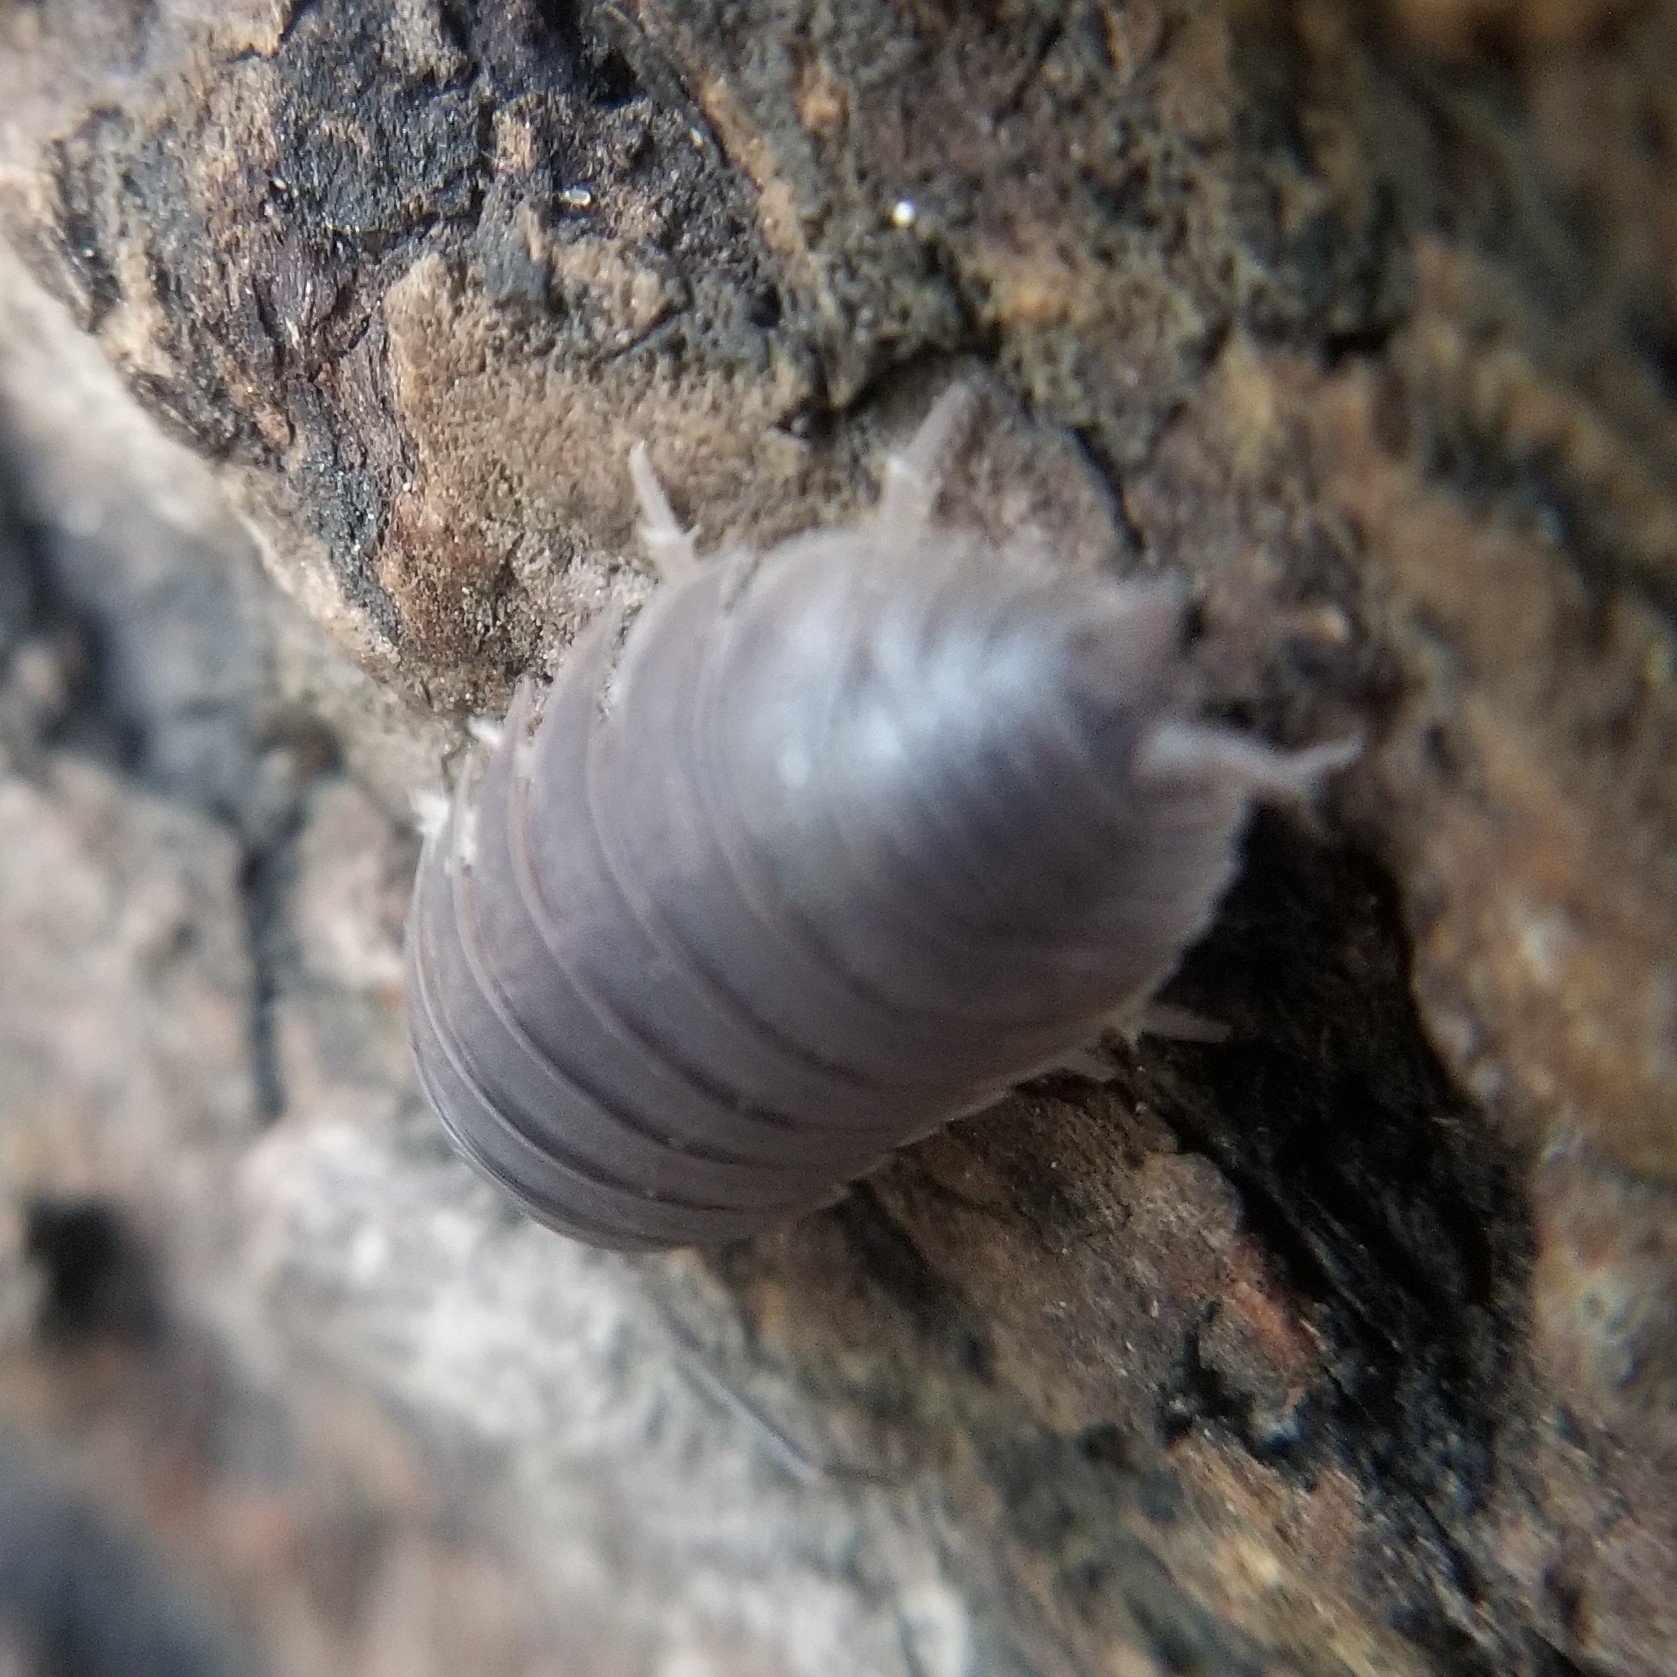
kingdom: Animalia
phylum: Arthropoda
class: Malacostraca
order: Isopoda
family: Porcellionidae
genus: Porcellio
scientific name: Porcellio laevis
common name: Swift woodlouse
